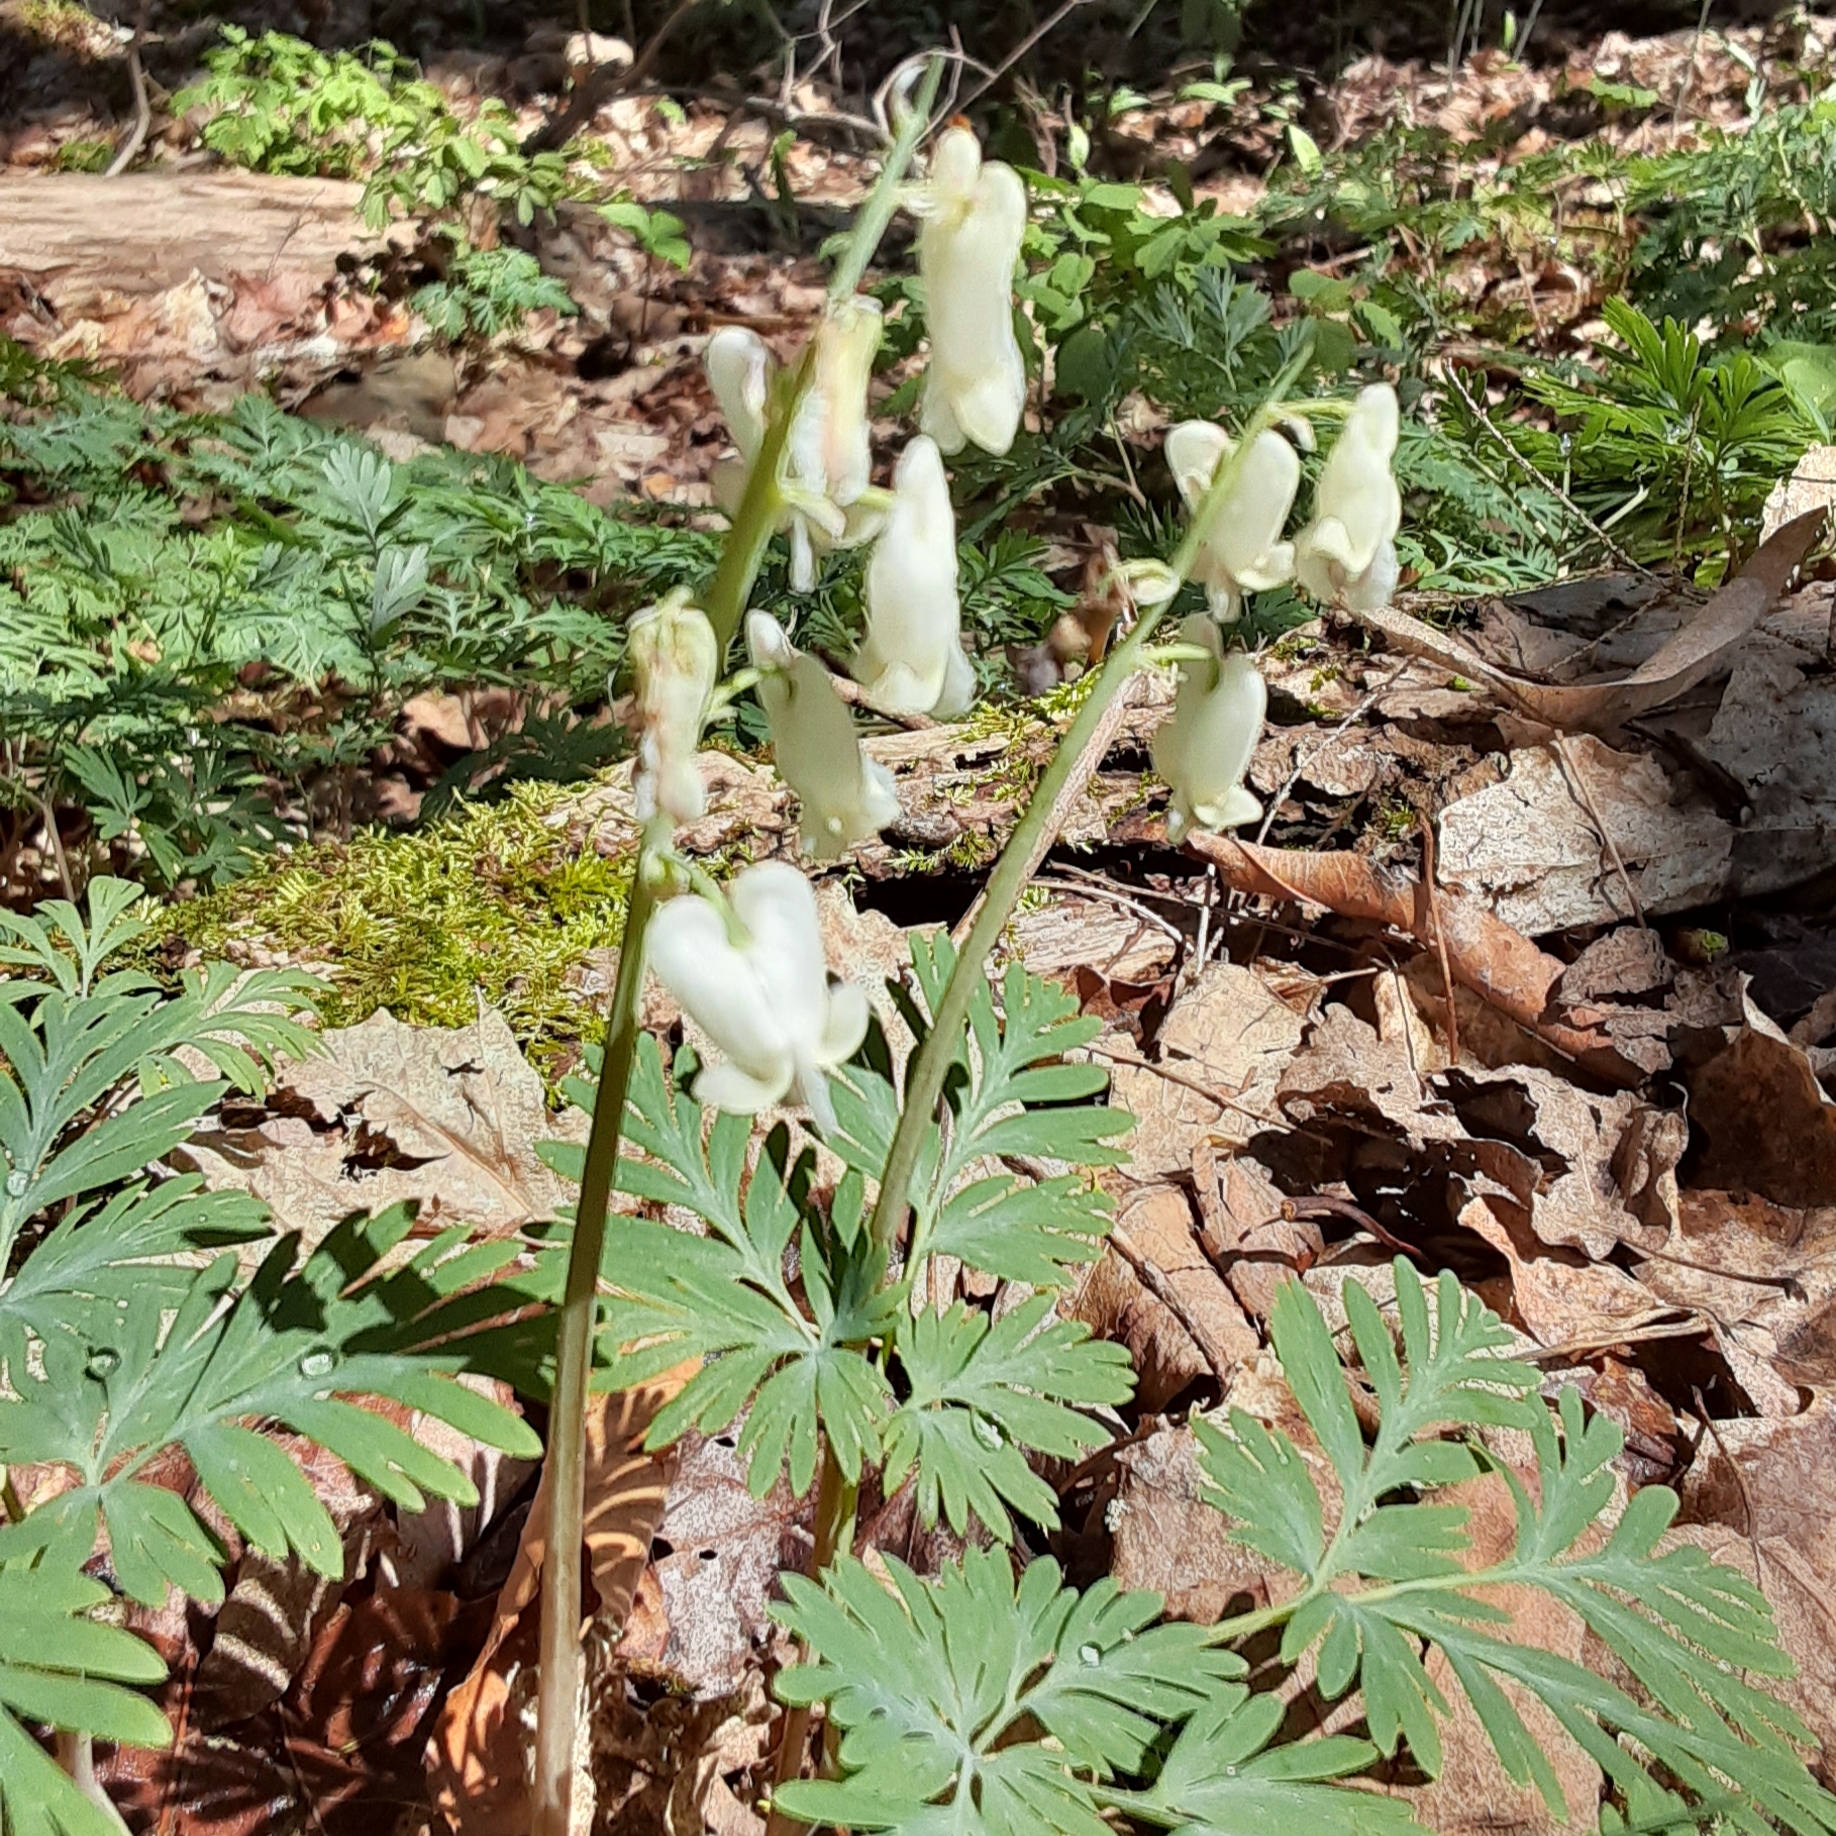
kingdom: Plantae
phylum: Tracheophyta
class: Magnoliopsida
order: Ranunculales
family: Papaveraceae
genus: Dicentra
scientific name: Dicentra canadensis
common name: Squirrel-corn
